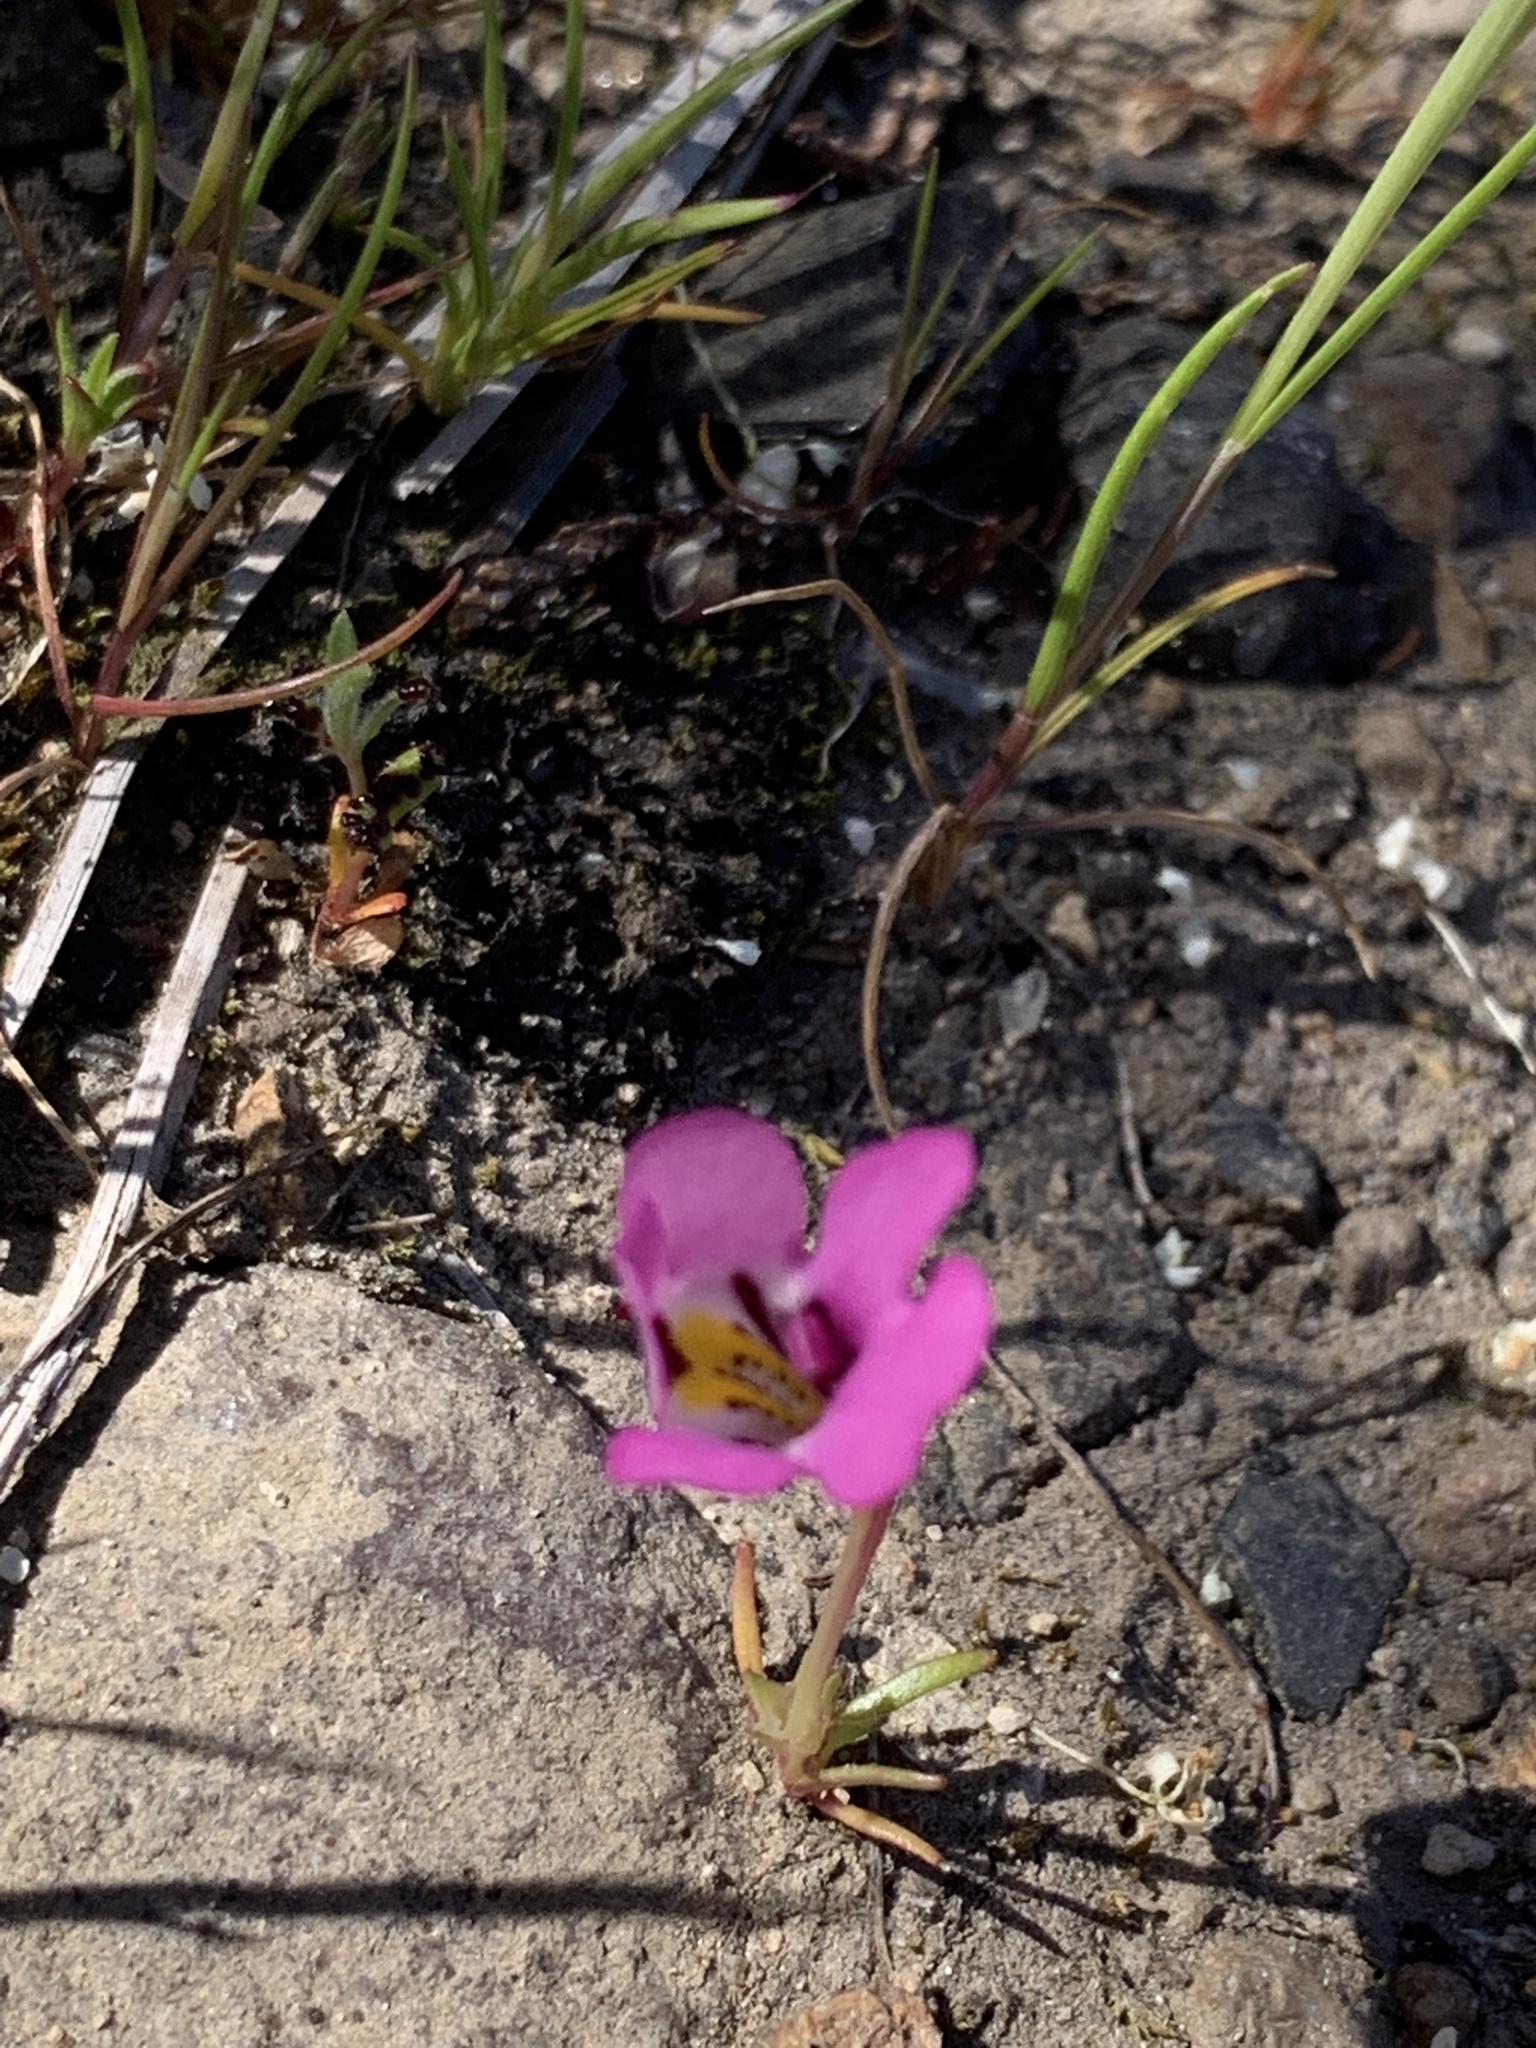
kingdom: Plantae
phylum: Tracheophyta
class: Magnoliopsida
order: Lamiales
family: Phrymaceae
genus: Diplacus
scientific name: Diplacus angustatus
